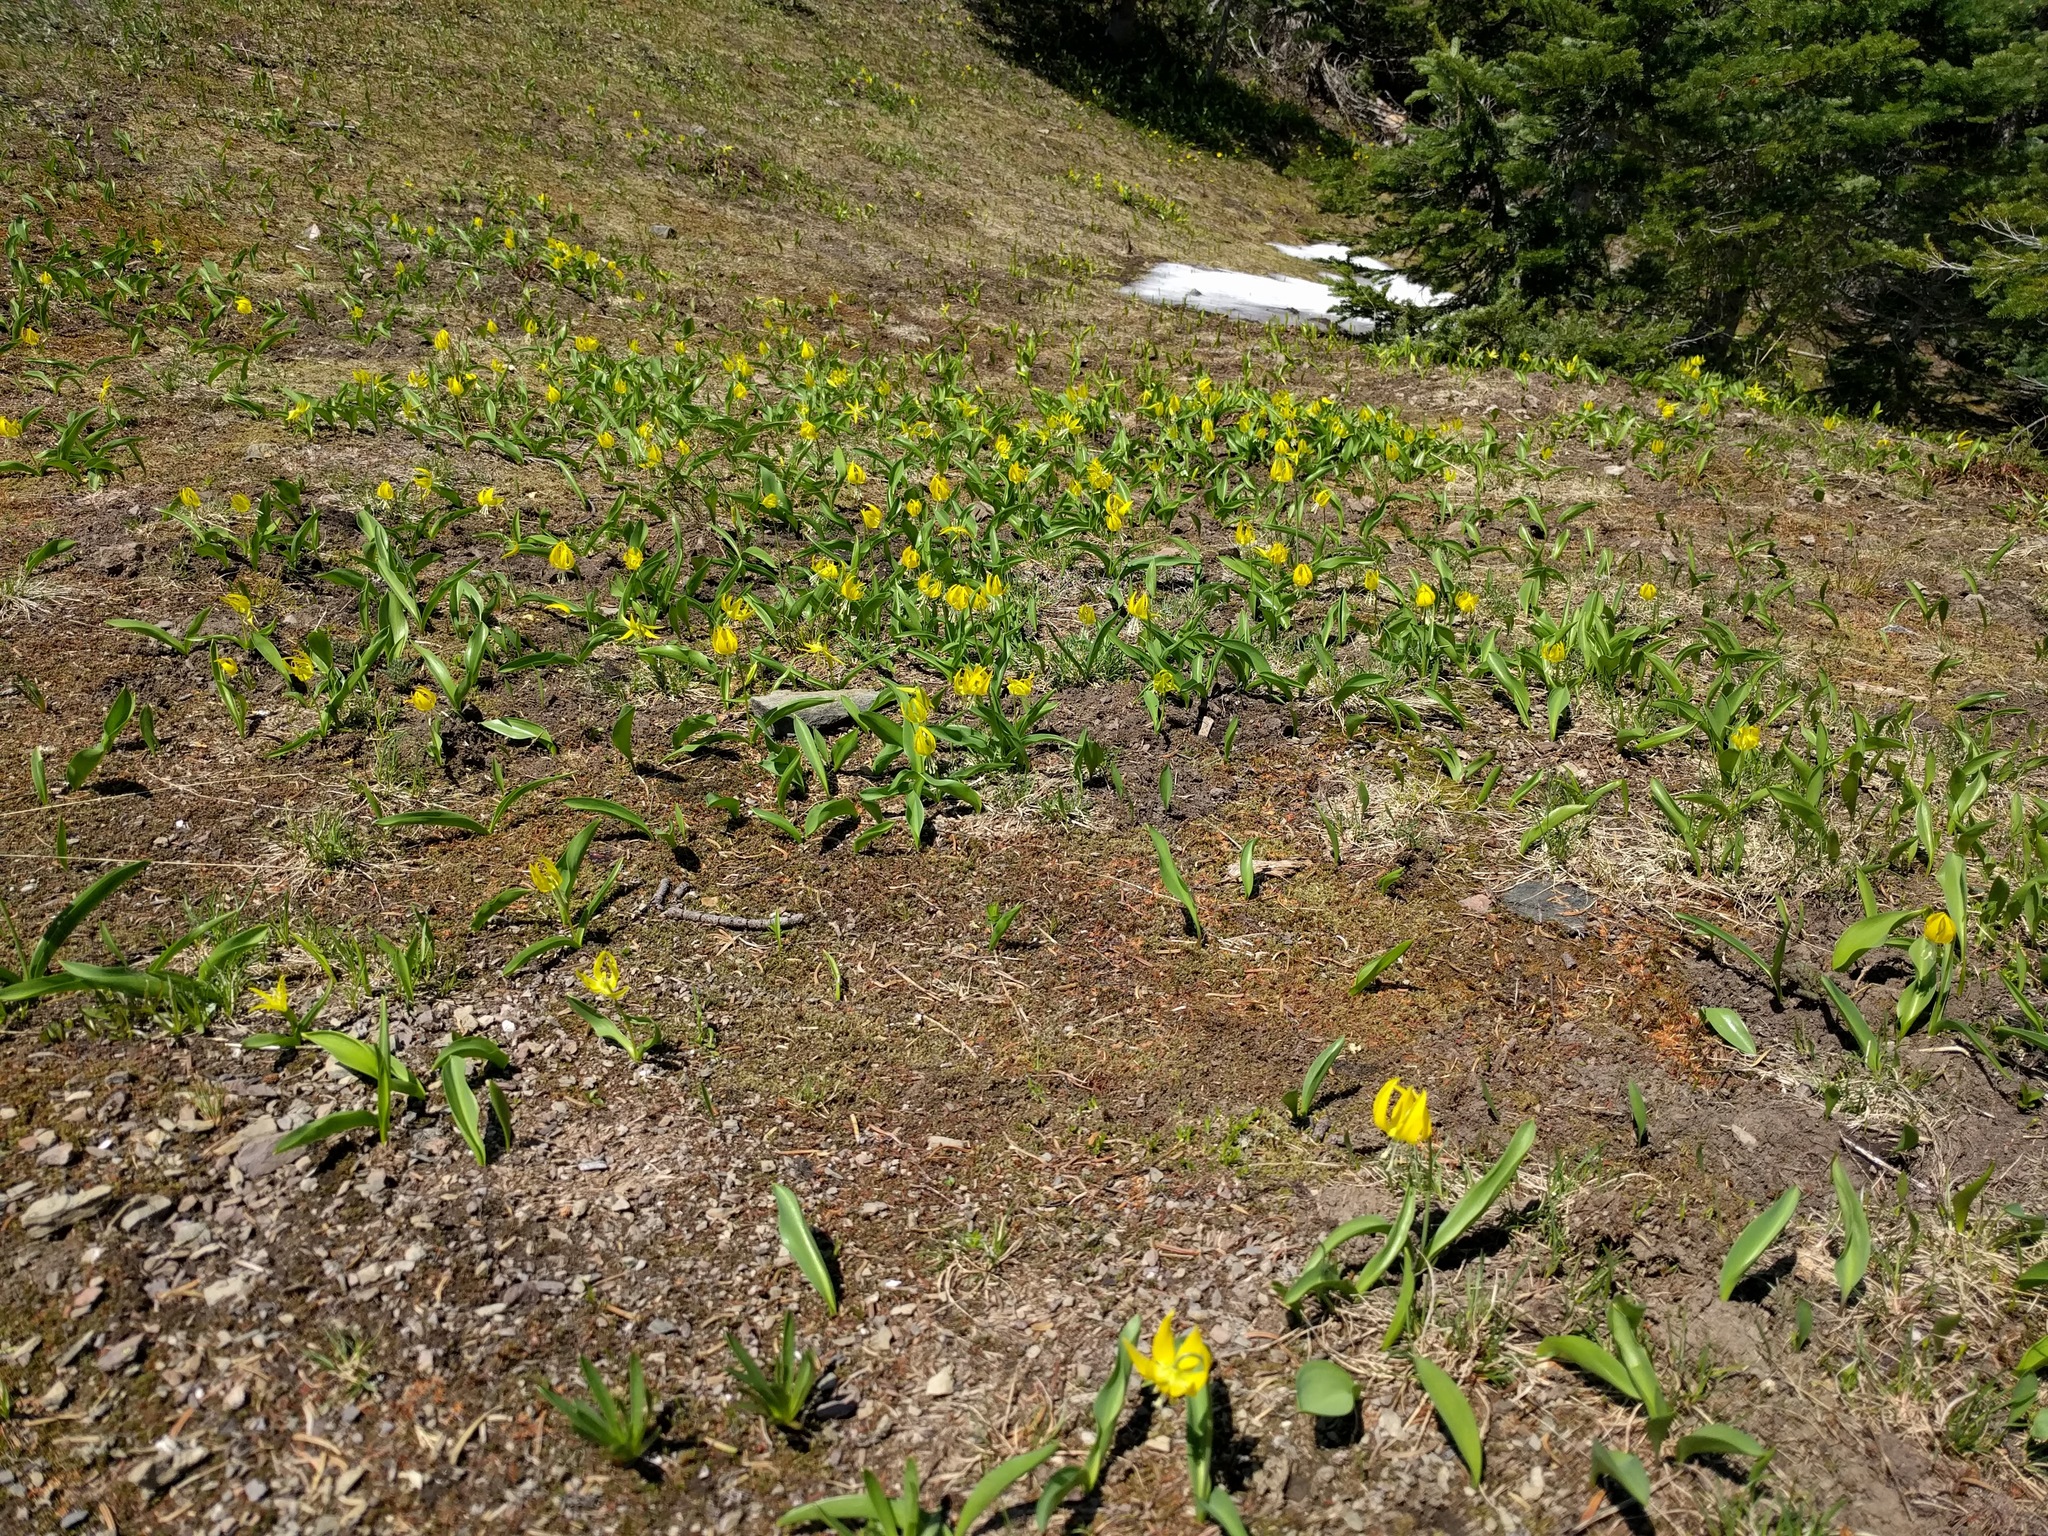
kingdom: Plantae
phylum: Tracheophyta
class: Liliopsida
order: Liliales
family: Liliaceae
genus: Erythronium
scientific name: Erythronium grandiflorum
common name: Avalanche-lily
